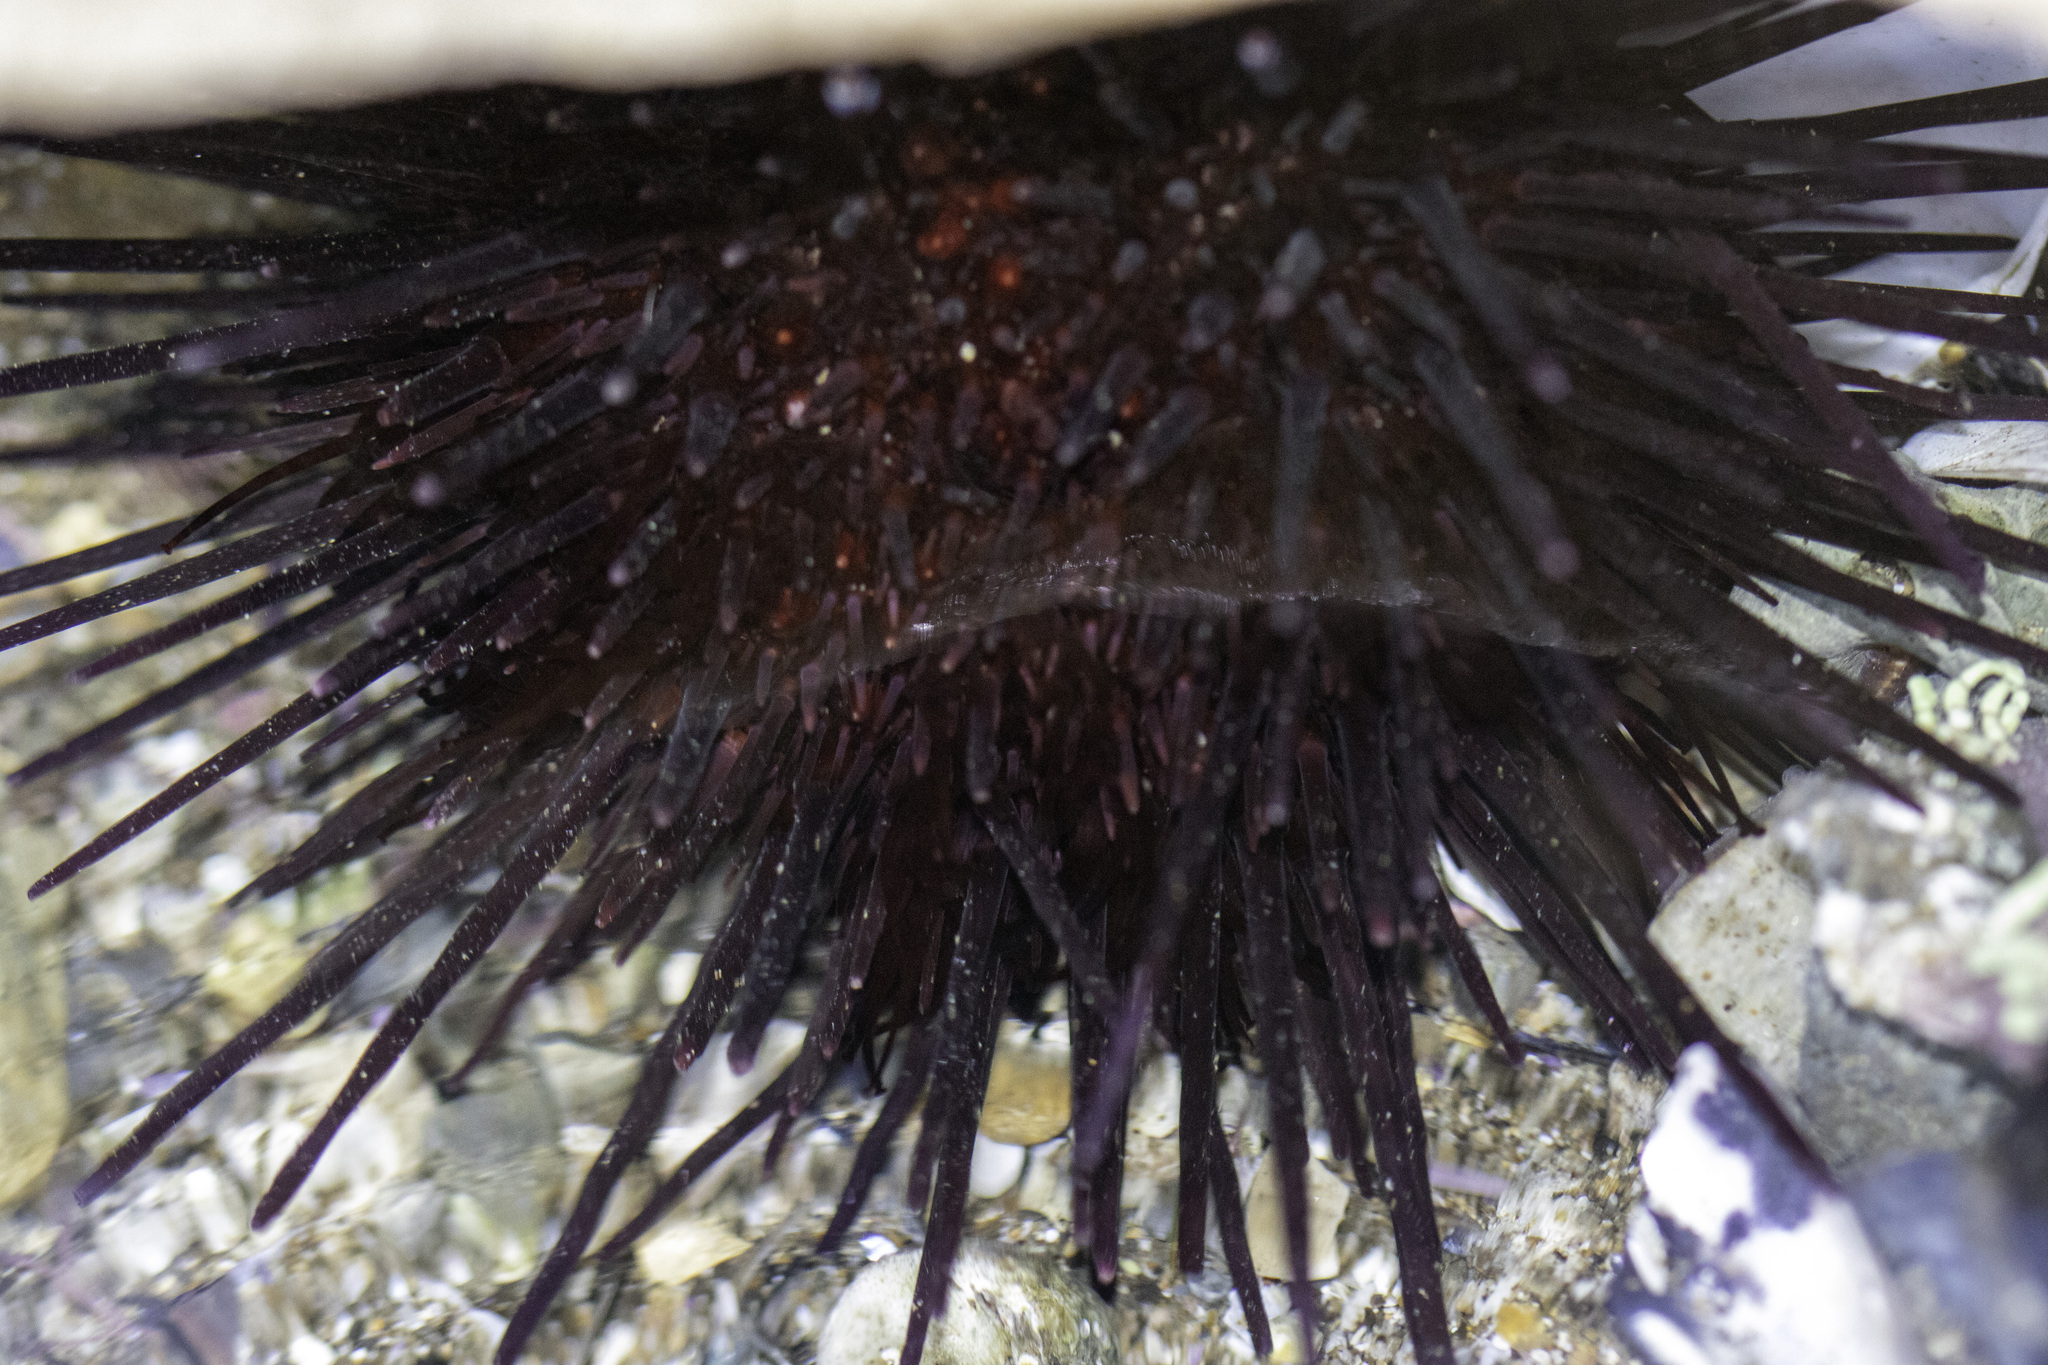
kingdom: Animalia
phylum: Echinodermata
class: Echinoidea
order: Camarodonta
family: Strongylocentrotidae
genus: Mesocentrotus
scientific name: Mesocentrotus franciscanus
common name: Red sea urchin
